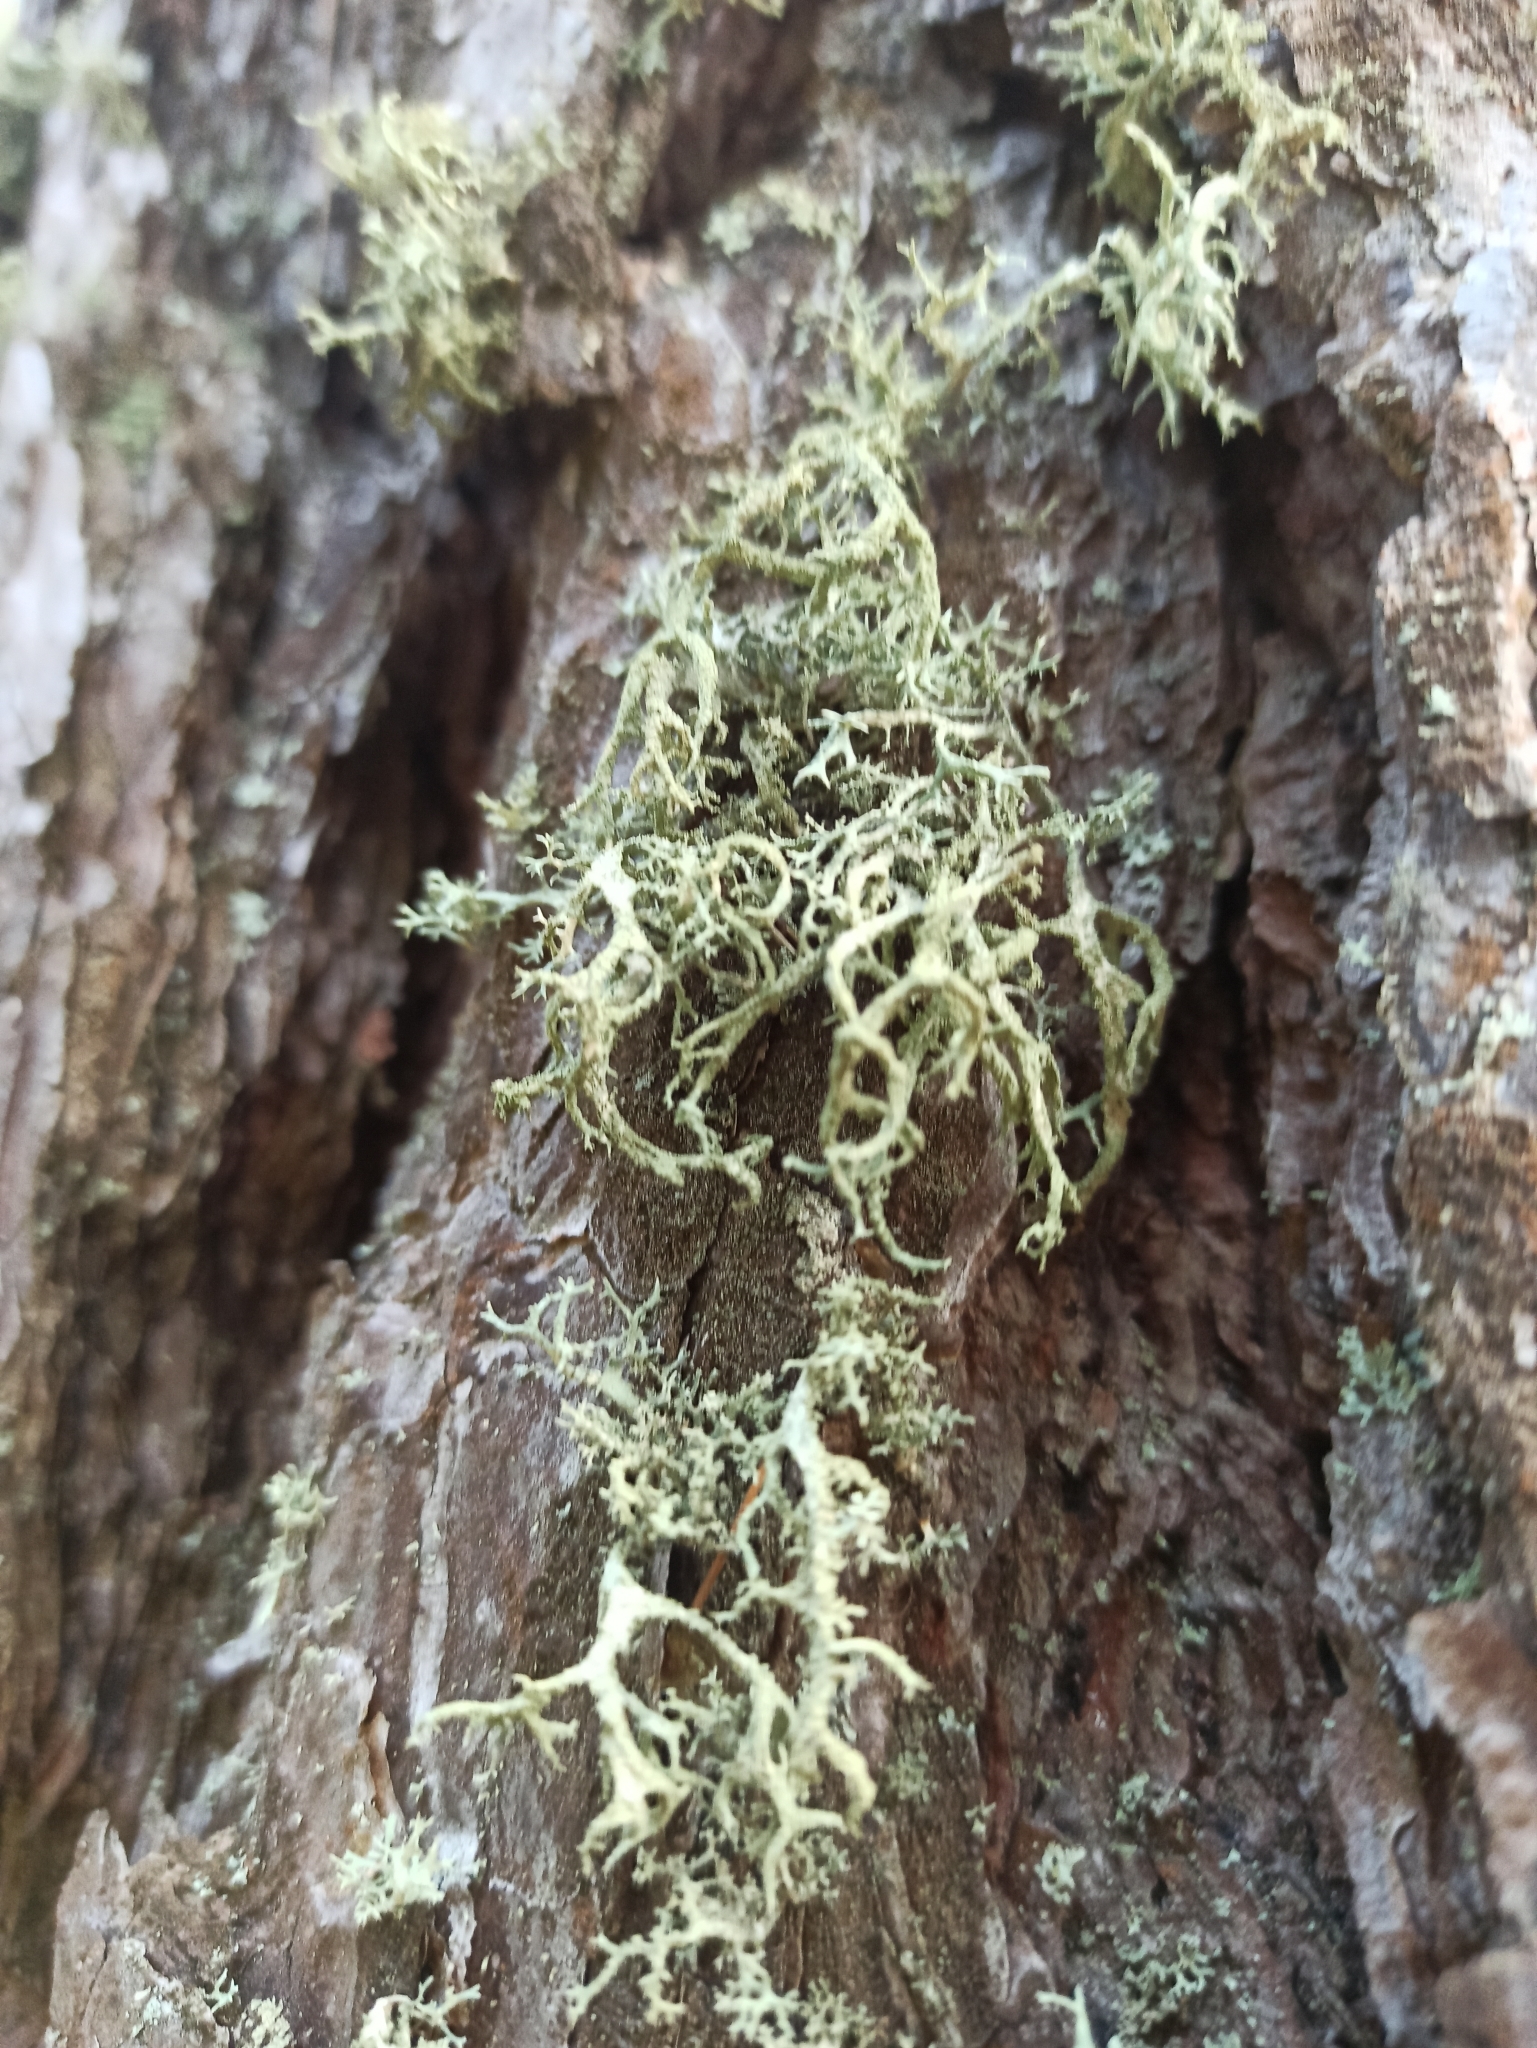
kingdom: Fungi
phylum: Ascomycota
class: Lecanoromycetes
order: Lecanorales
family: Parmeliaceae
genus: Evernia
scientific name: Evernia mesomorpha
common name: Boreal oak moss lichen
